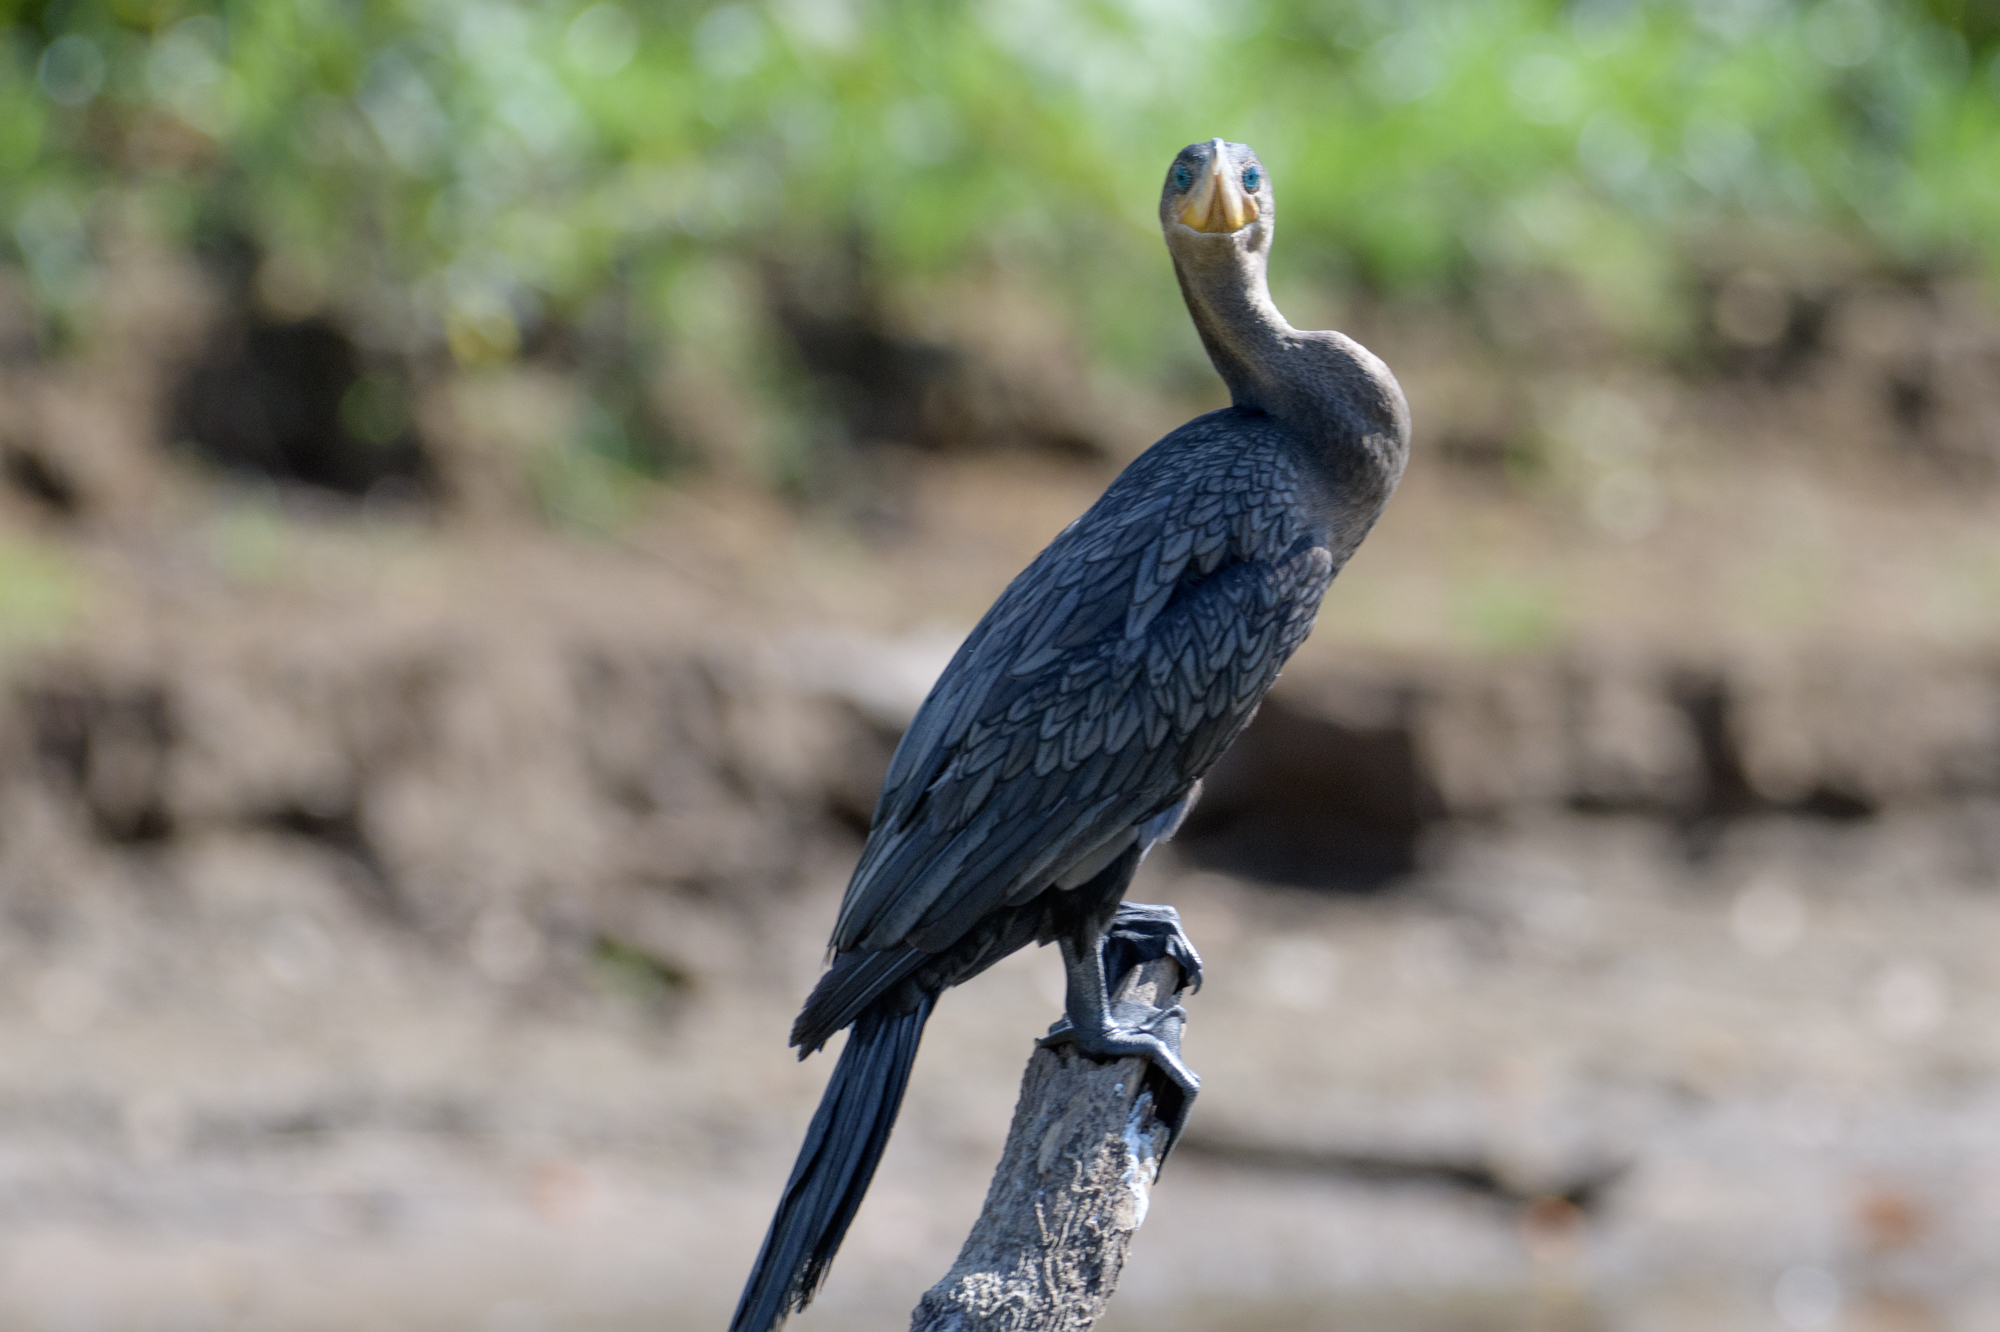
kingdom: Animalia
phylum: Chordata
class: Aves
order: Suliformes
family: Phalacrocoracidae
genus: Phalacrocorax
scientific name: Phalacrocorax brasilianus
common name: Neotropic cormorant
